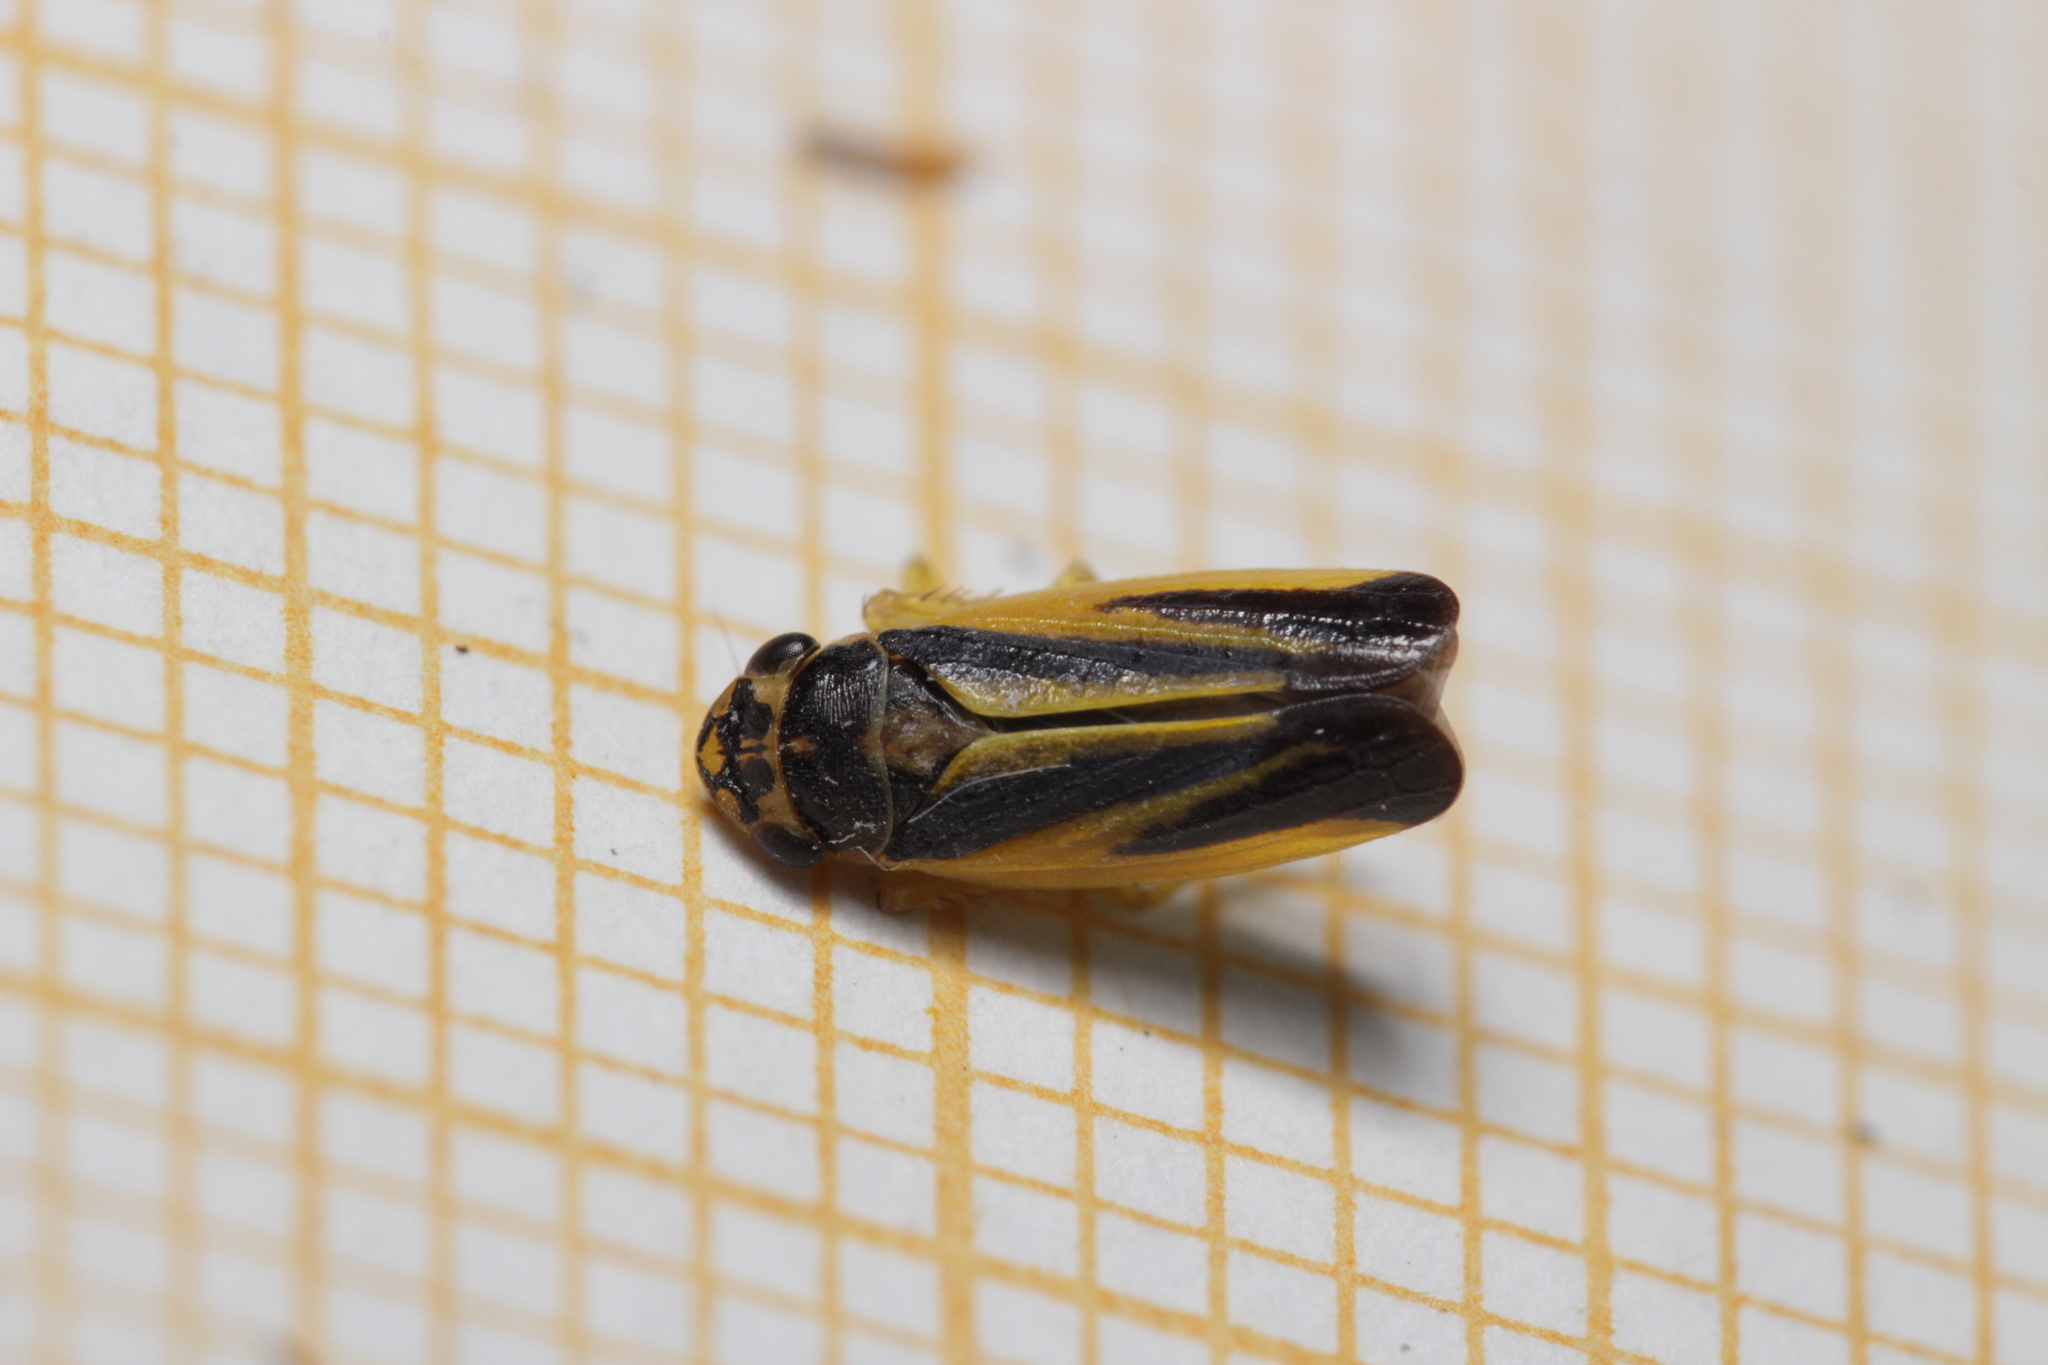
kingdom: Animalia
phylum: Arthropoda
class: Insecta
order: Hemiptera
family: Cicadellidae
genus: Evacanthus
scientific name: Evacanthus interruptus
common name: Leafhopper
